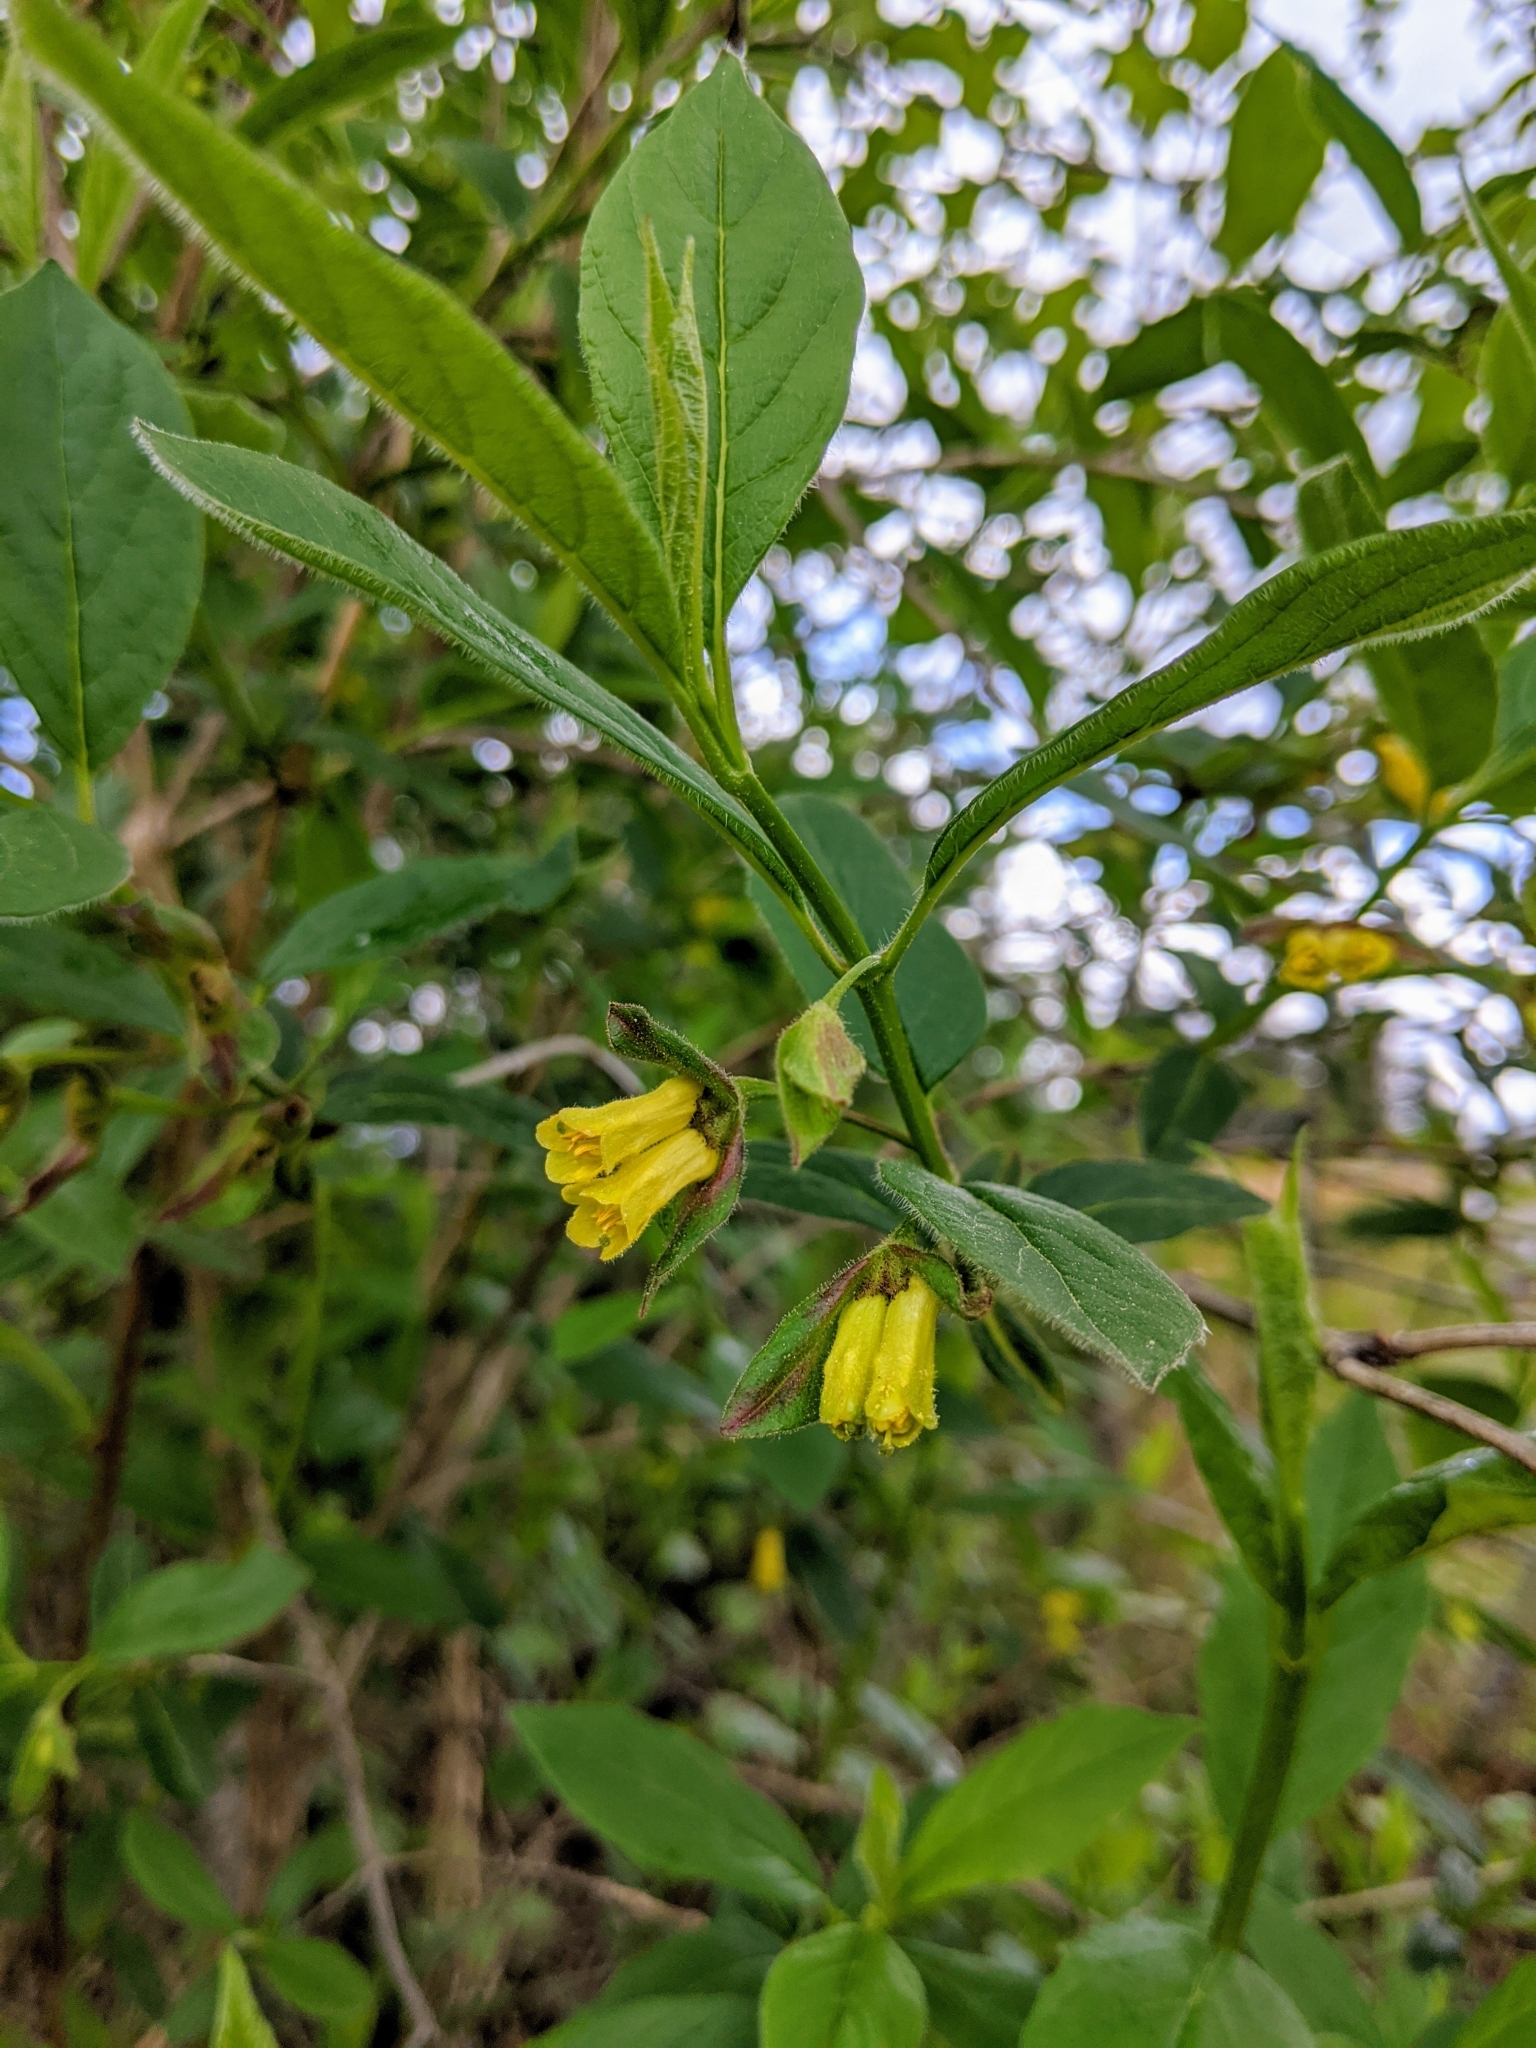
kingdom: Plantae
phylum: Tracheophyta
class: Magnoliopsida
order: Dipsacales
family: Caprifoliaceae
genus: Lonicera
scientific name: Lonicera involucrata
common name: Californian honeysuckle
